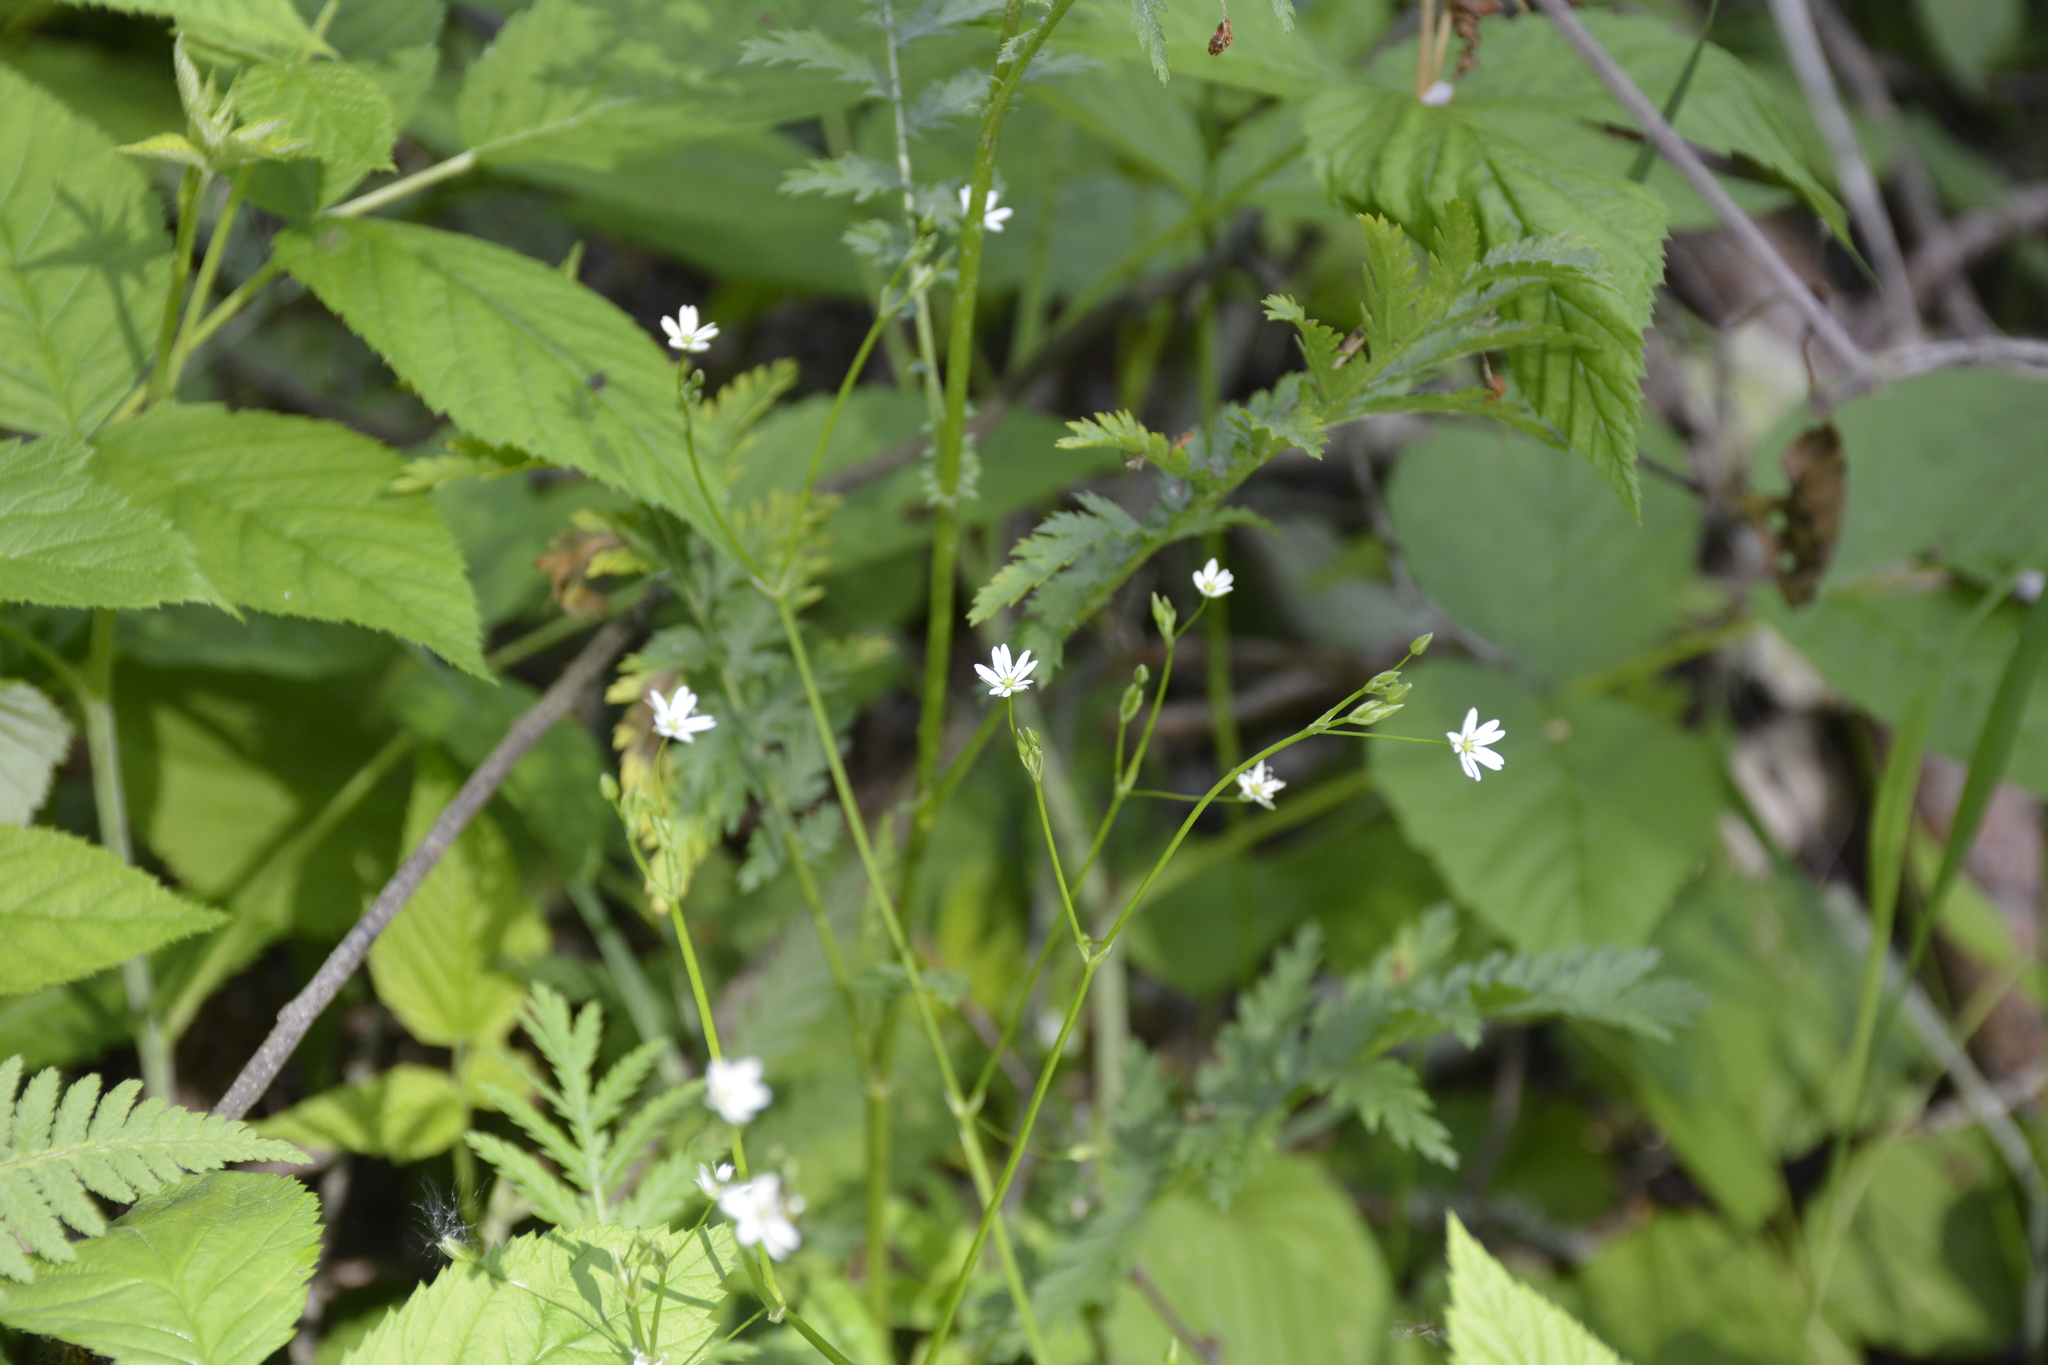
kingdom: Plantae
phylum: Tracheophyta
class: Magnoliopsida
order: Caryophyllales
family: Caryophyllaceae
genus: Stellaria
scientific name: Stellaria graminea
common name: Grass-like starwort
